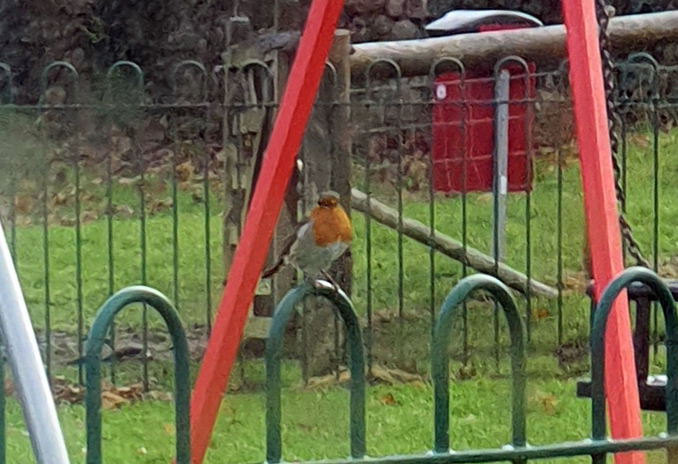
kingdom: Animalia
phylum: Chordata
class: Aves
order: Passeriformes
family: Muscicapidae
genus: Erithacus
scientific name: Erithacus rubecula
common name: European robin
